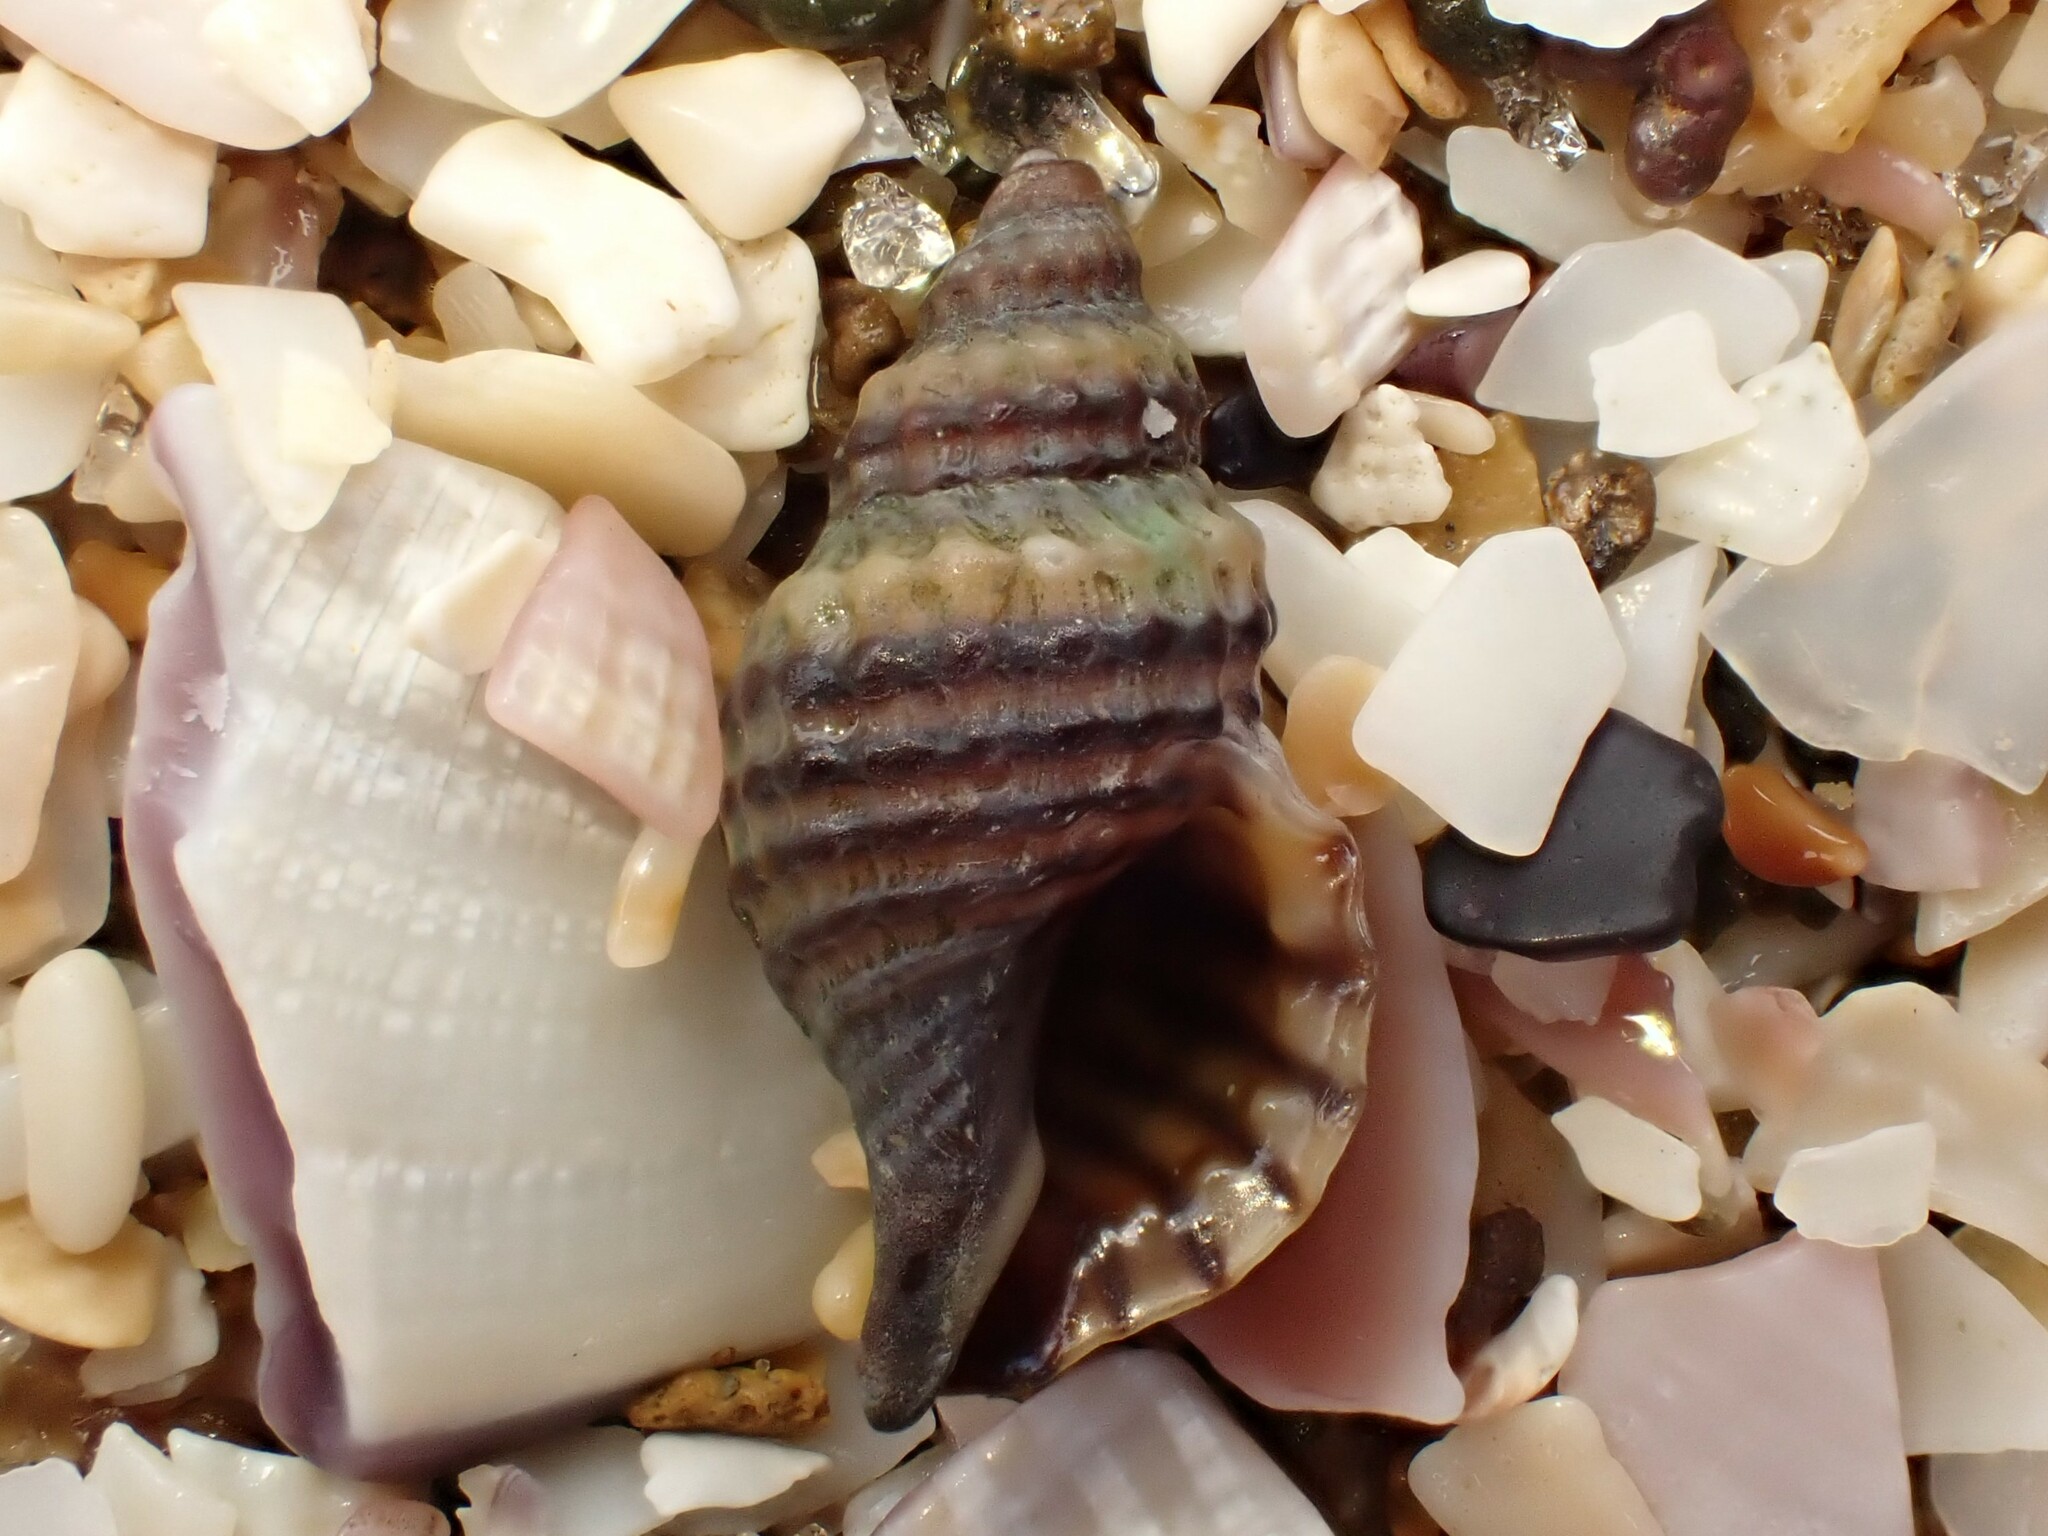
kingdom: Animalia
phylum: Mollusca
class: Gastropoda
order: Neogastropoda
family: Muricidae
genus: Xymene
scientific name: Xymene plebeius
